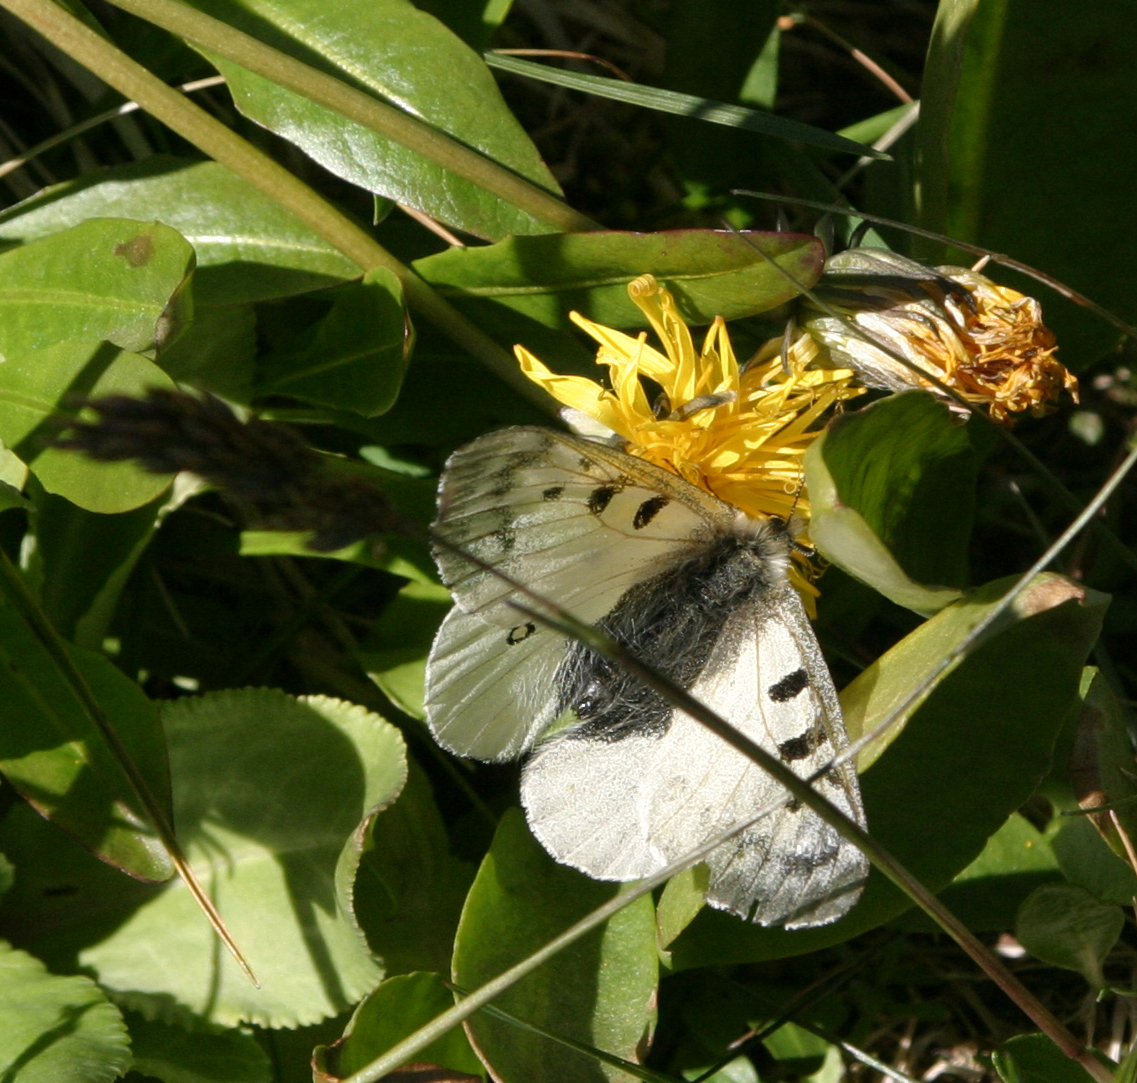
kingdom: Animalia
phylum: Arthropoda
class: Insecta
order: Lepidoptera
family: Papilionidae
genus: Parnassius
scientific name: Parnassius phoebus
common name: Small apollo
